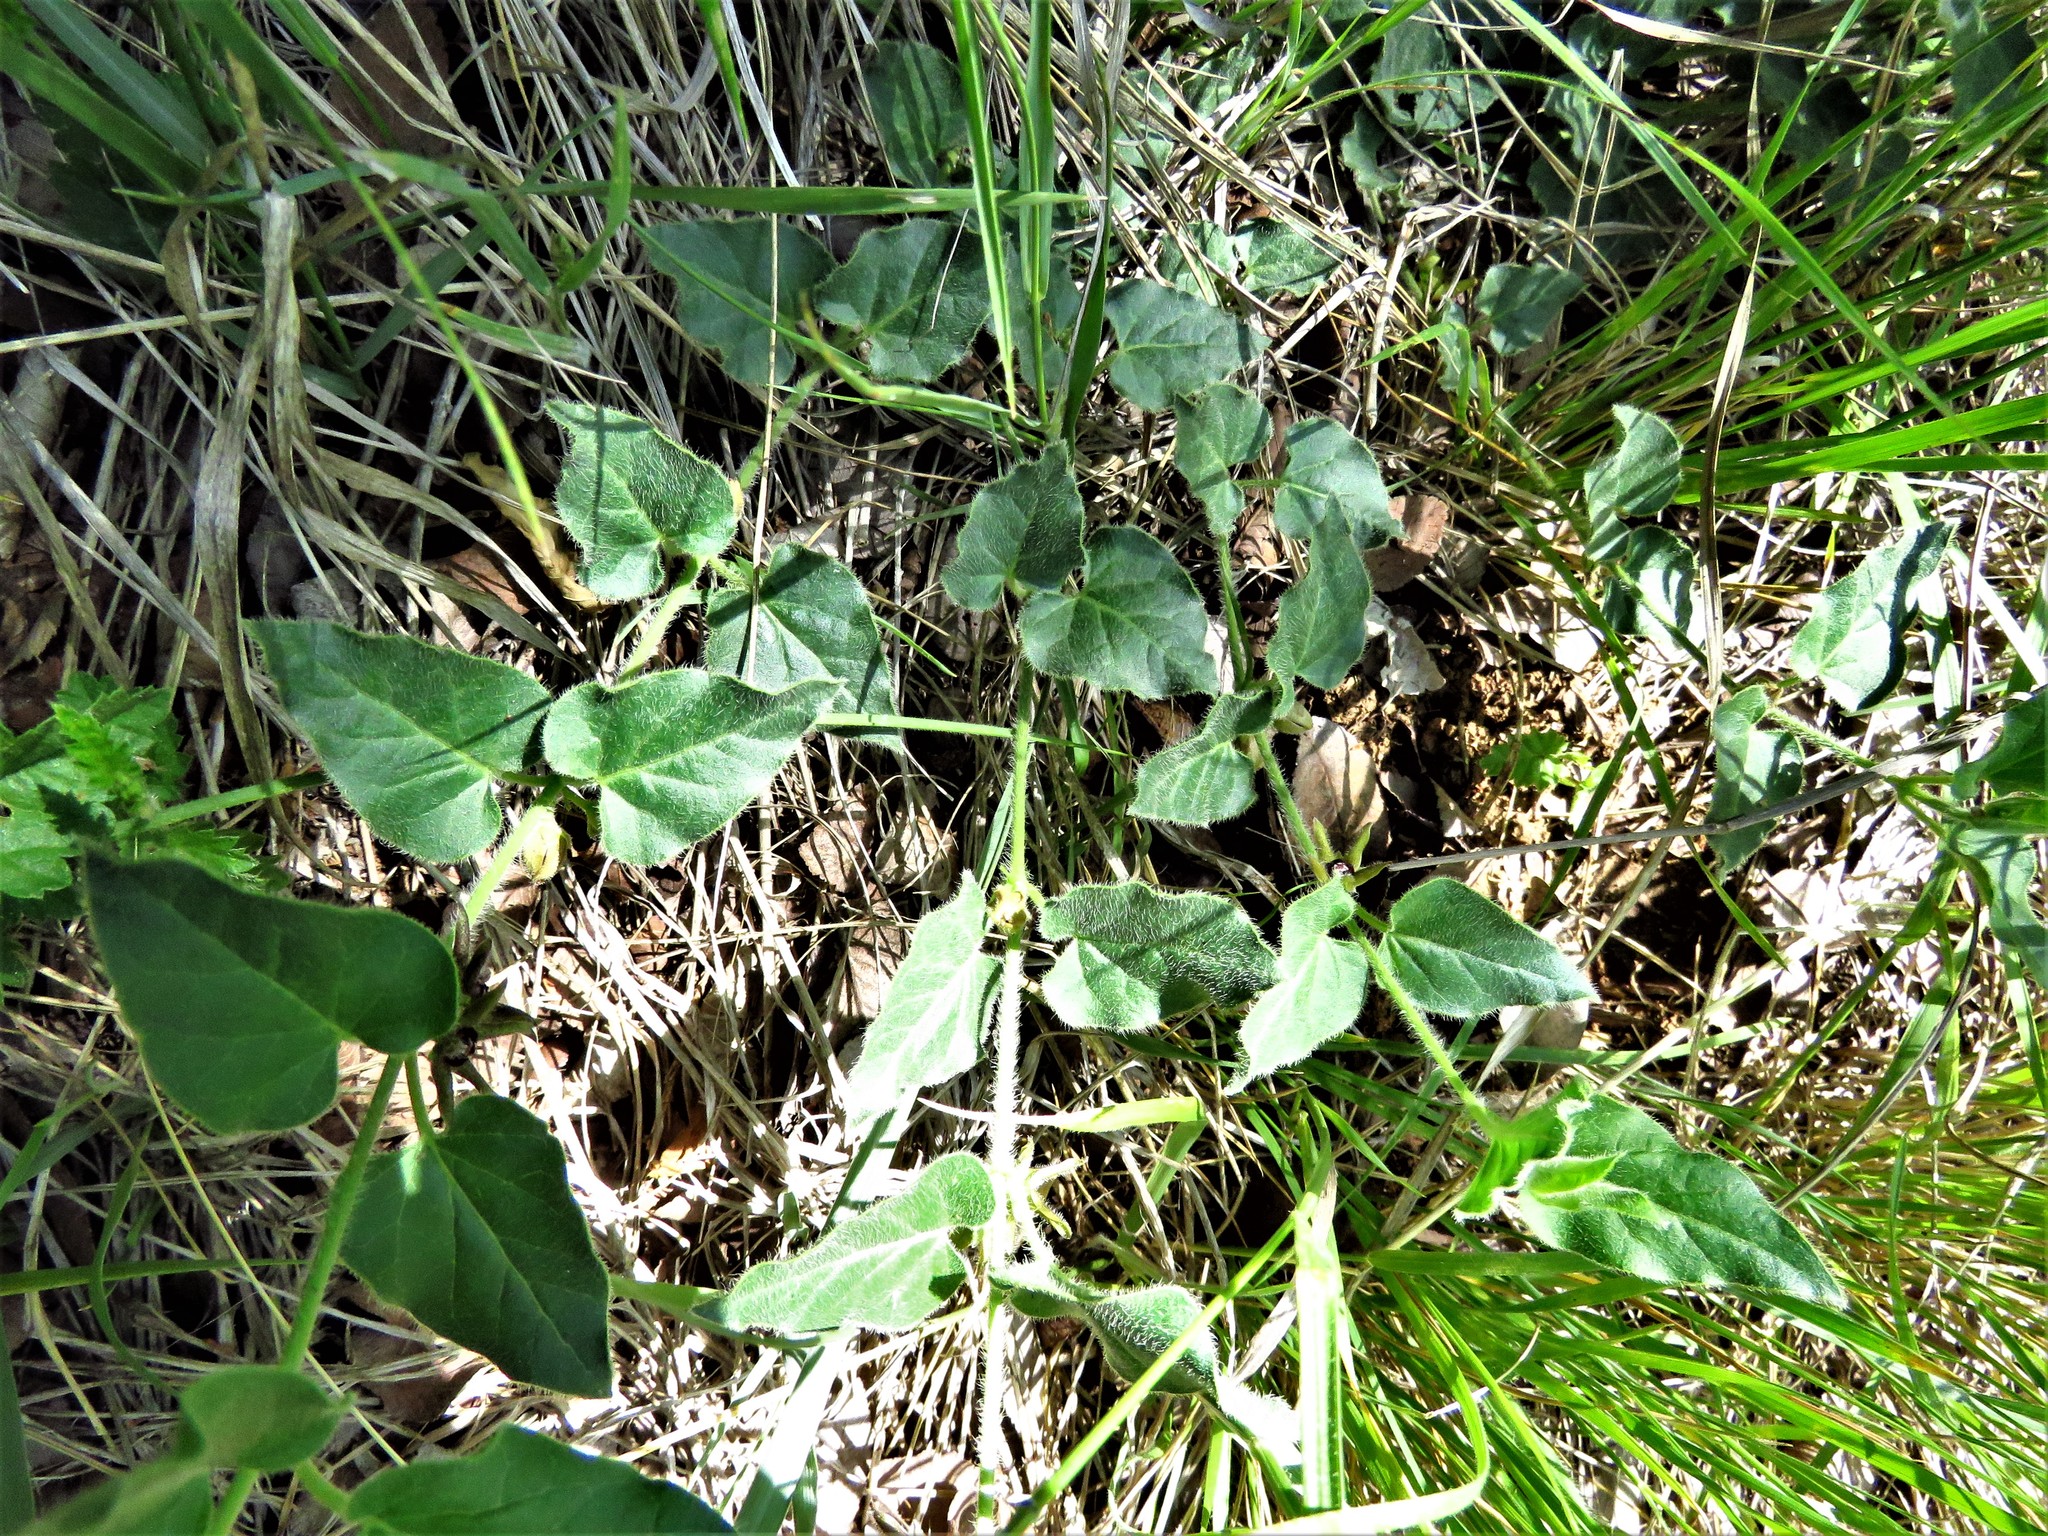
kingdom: Plantae
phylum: Tracheophyta
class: Magnoliopsida
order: Gentianales
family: Apocynaceae
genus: Chthamalia
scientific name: Chthamalia biflora
